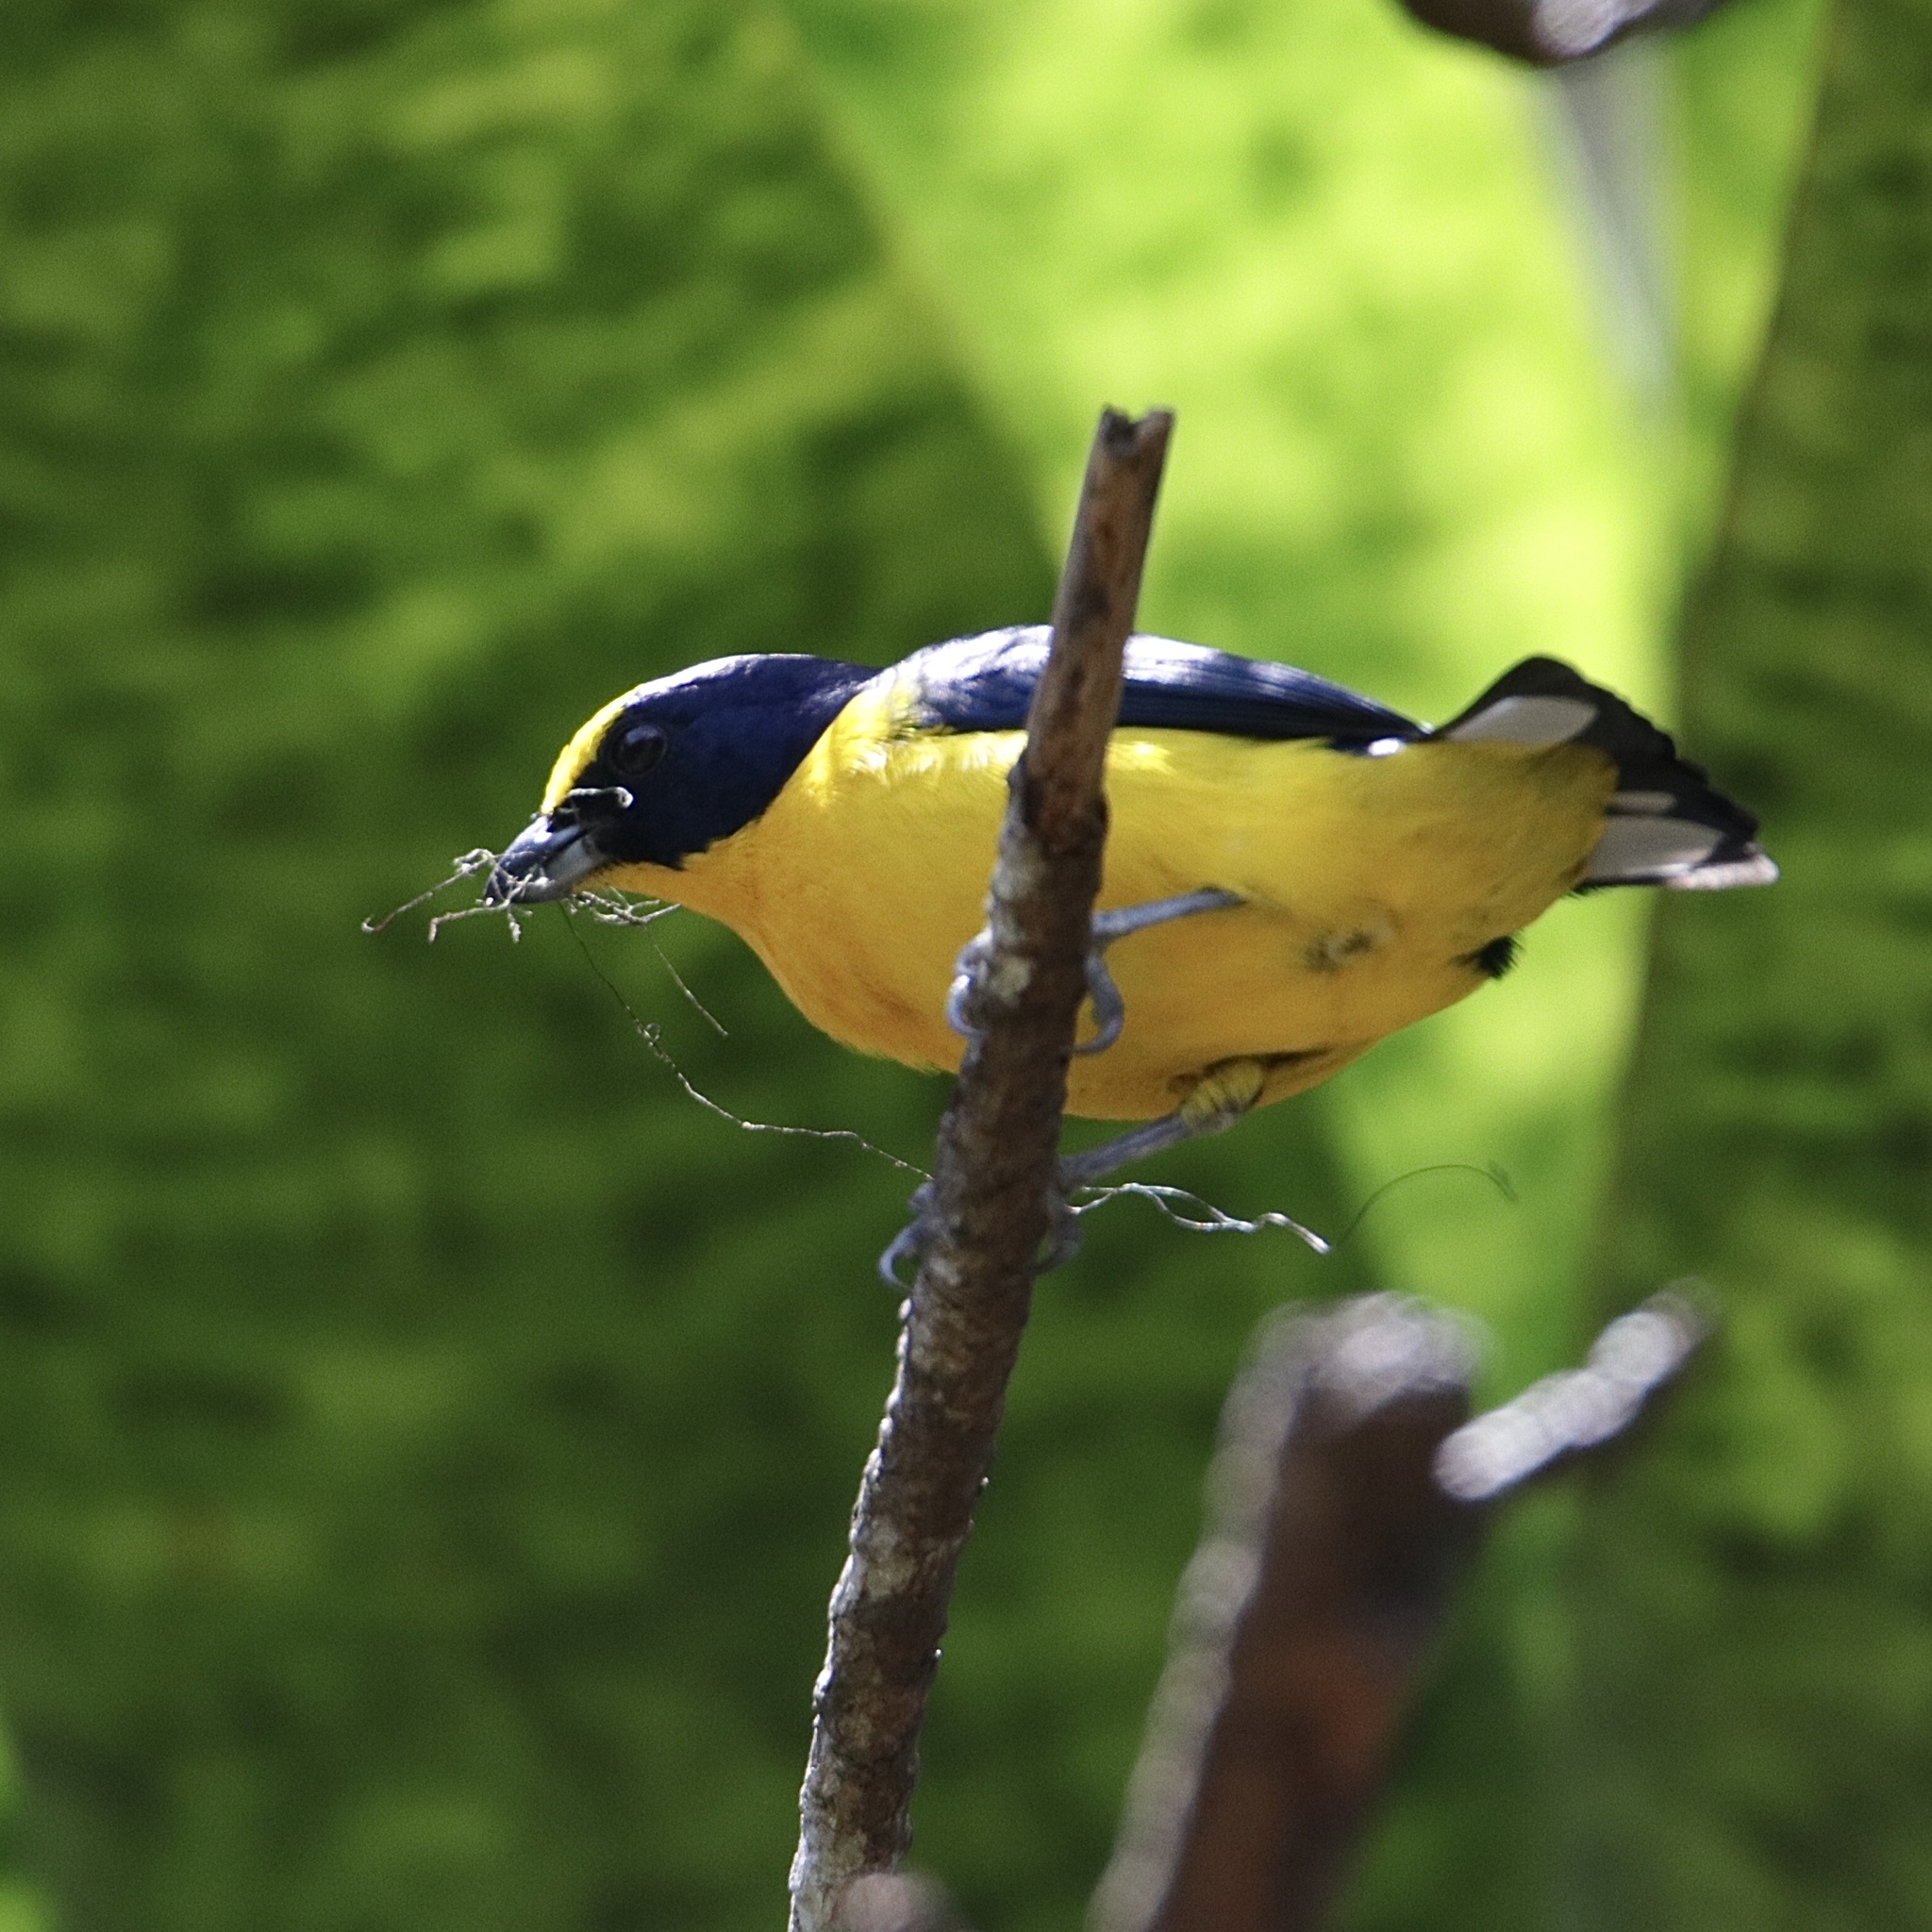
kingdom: Animalia
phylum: Chordata
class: Aves
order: Passeriformes
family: Fringillidae
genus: Euphonia
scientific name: Euphonia laniirostris
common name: Thick-billed euphonia
